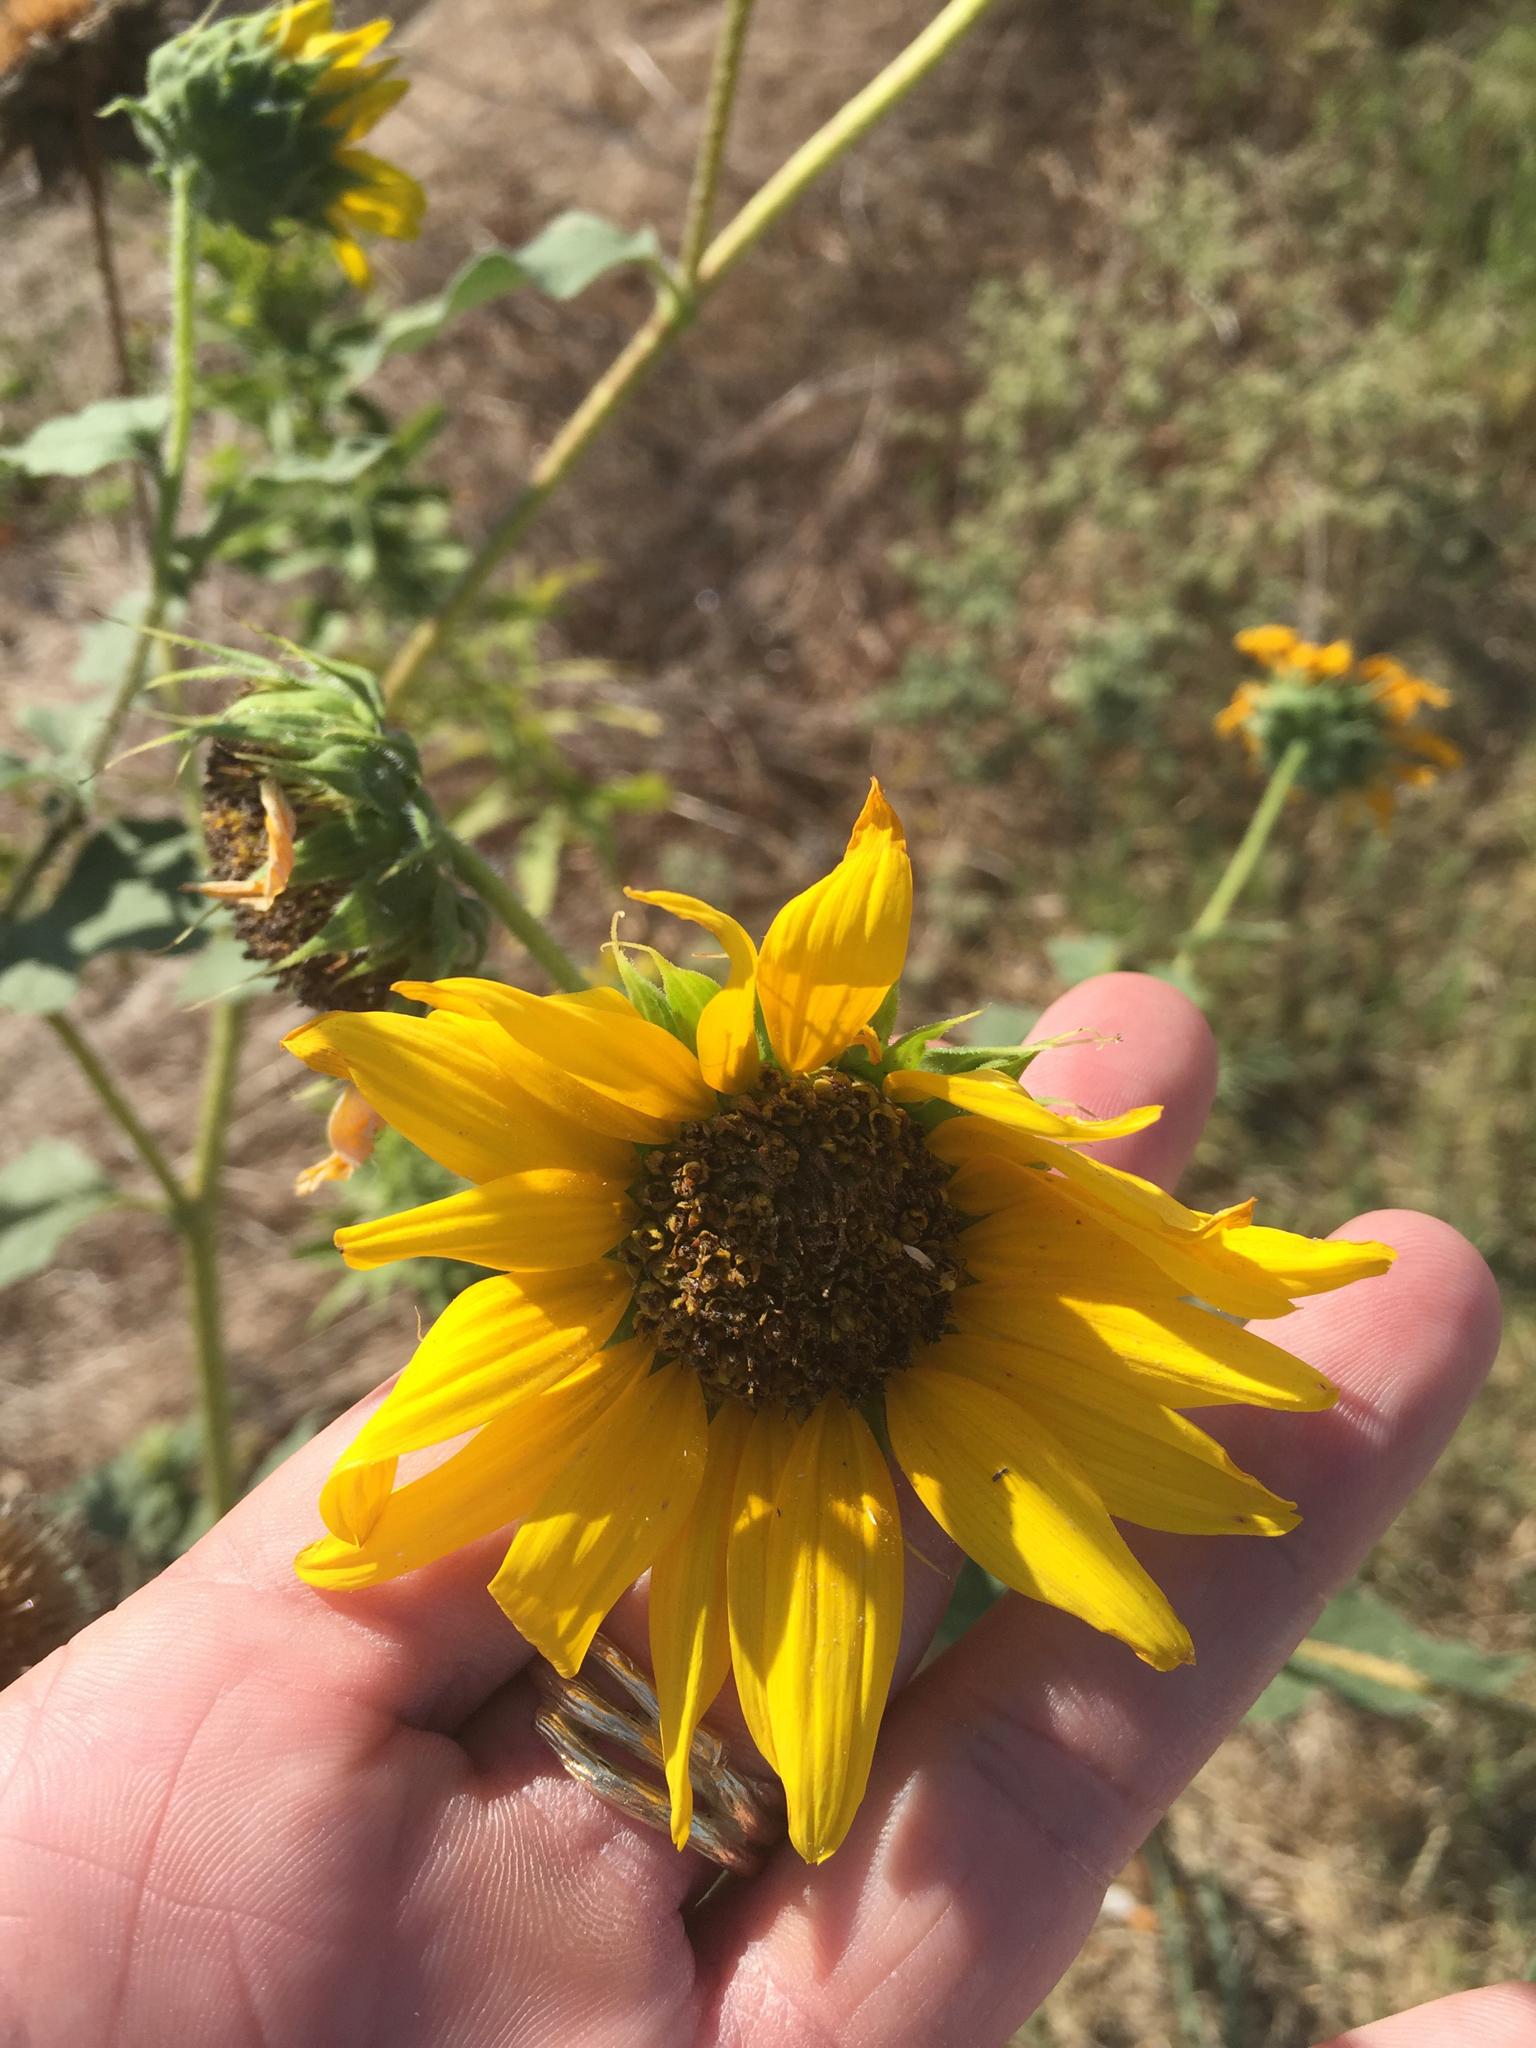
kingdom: Plantae
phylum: Tracheophyta
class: Magnoliopsida
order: Asterales
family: Asteraceae
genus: Helianthus
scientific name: Helianthus annuus
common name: Sunflower
